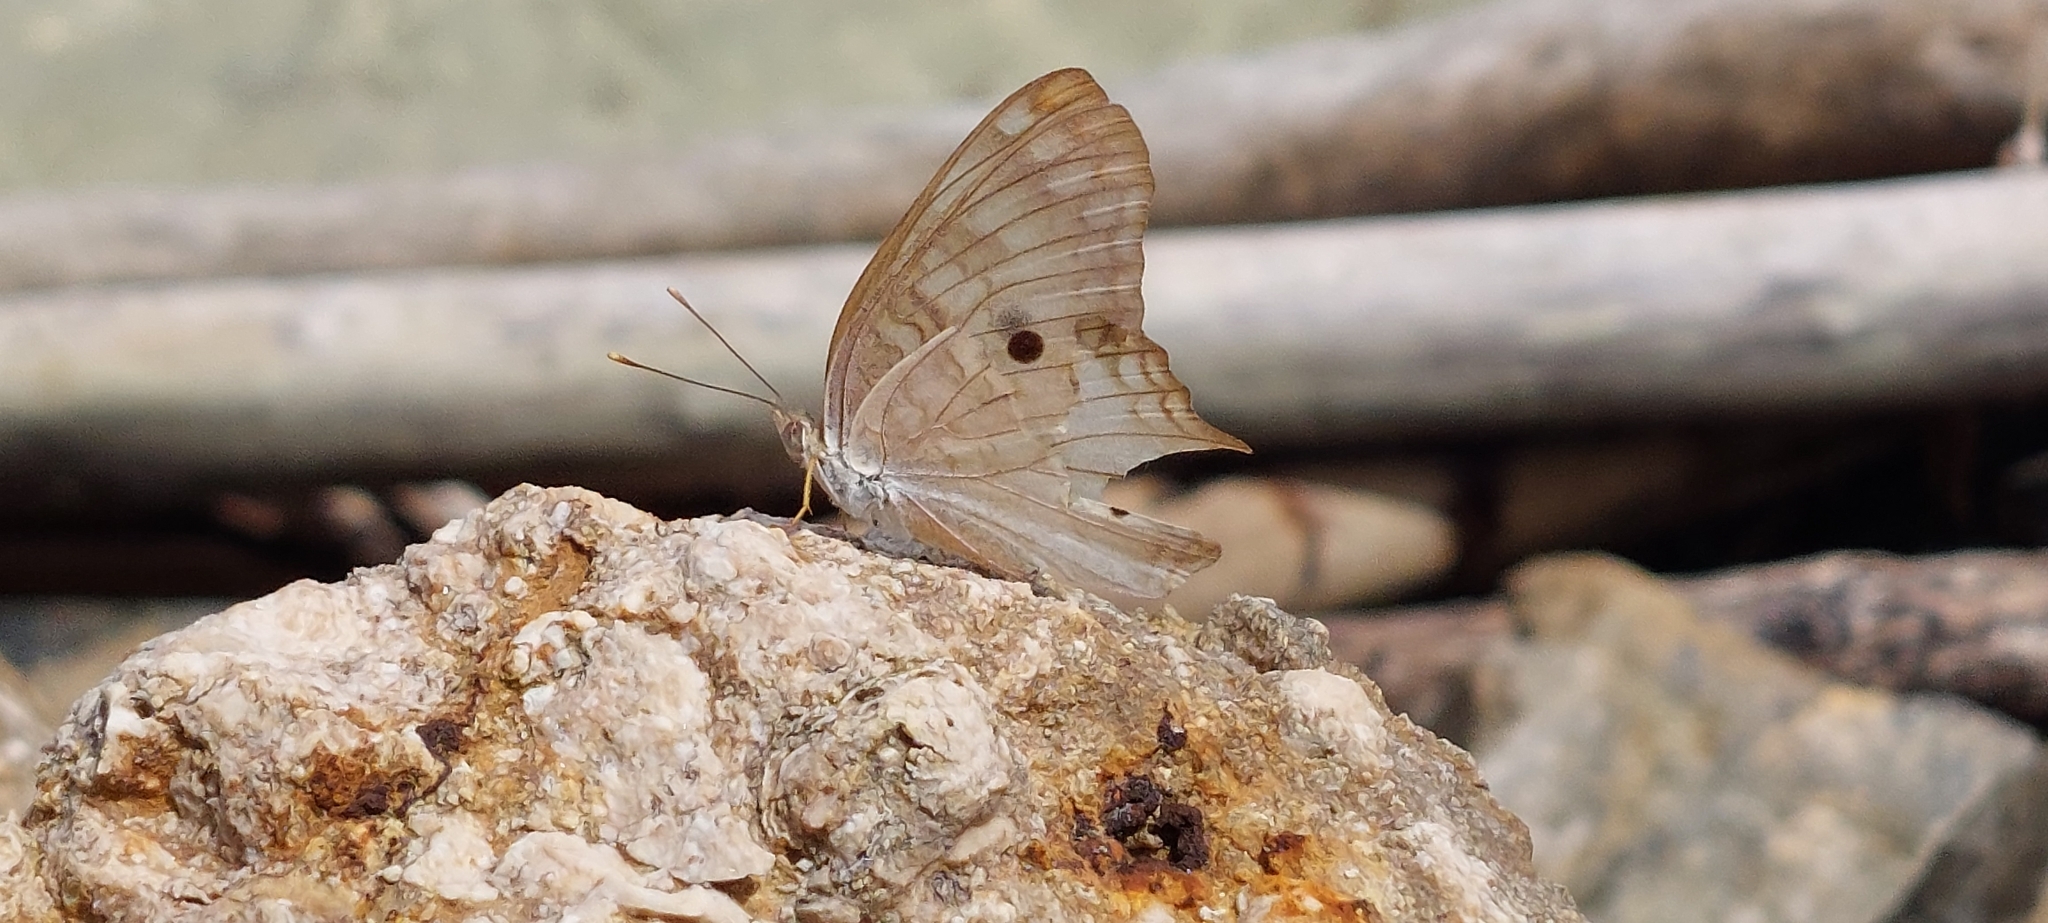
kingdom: Animalia
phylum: Arthropoda
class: Insecta
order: Lepidoptera
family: Nymphalidae
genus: Anartia
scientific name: Anartia jatrophae
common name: White peacock
